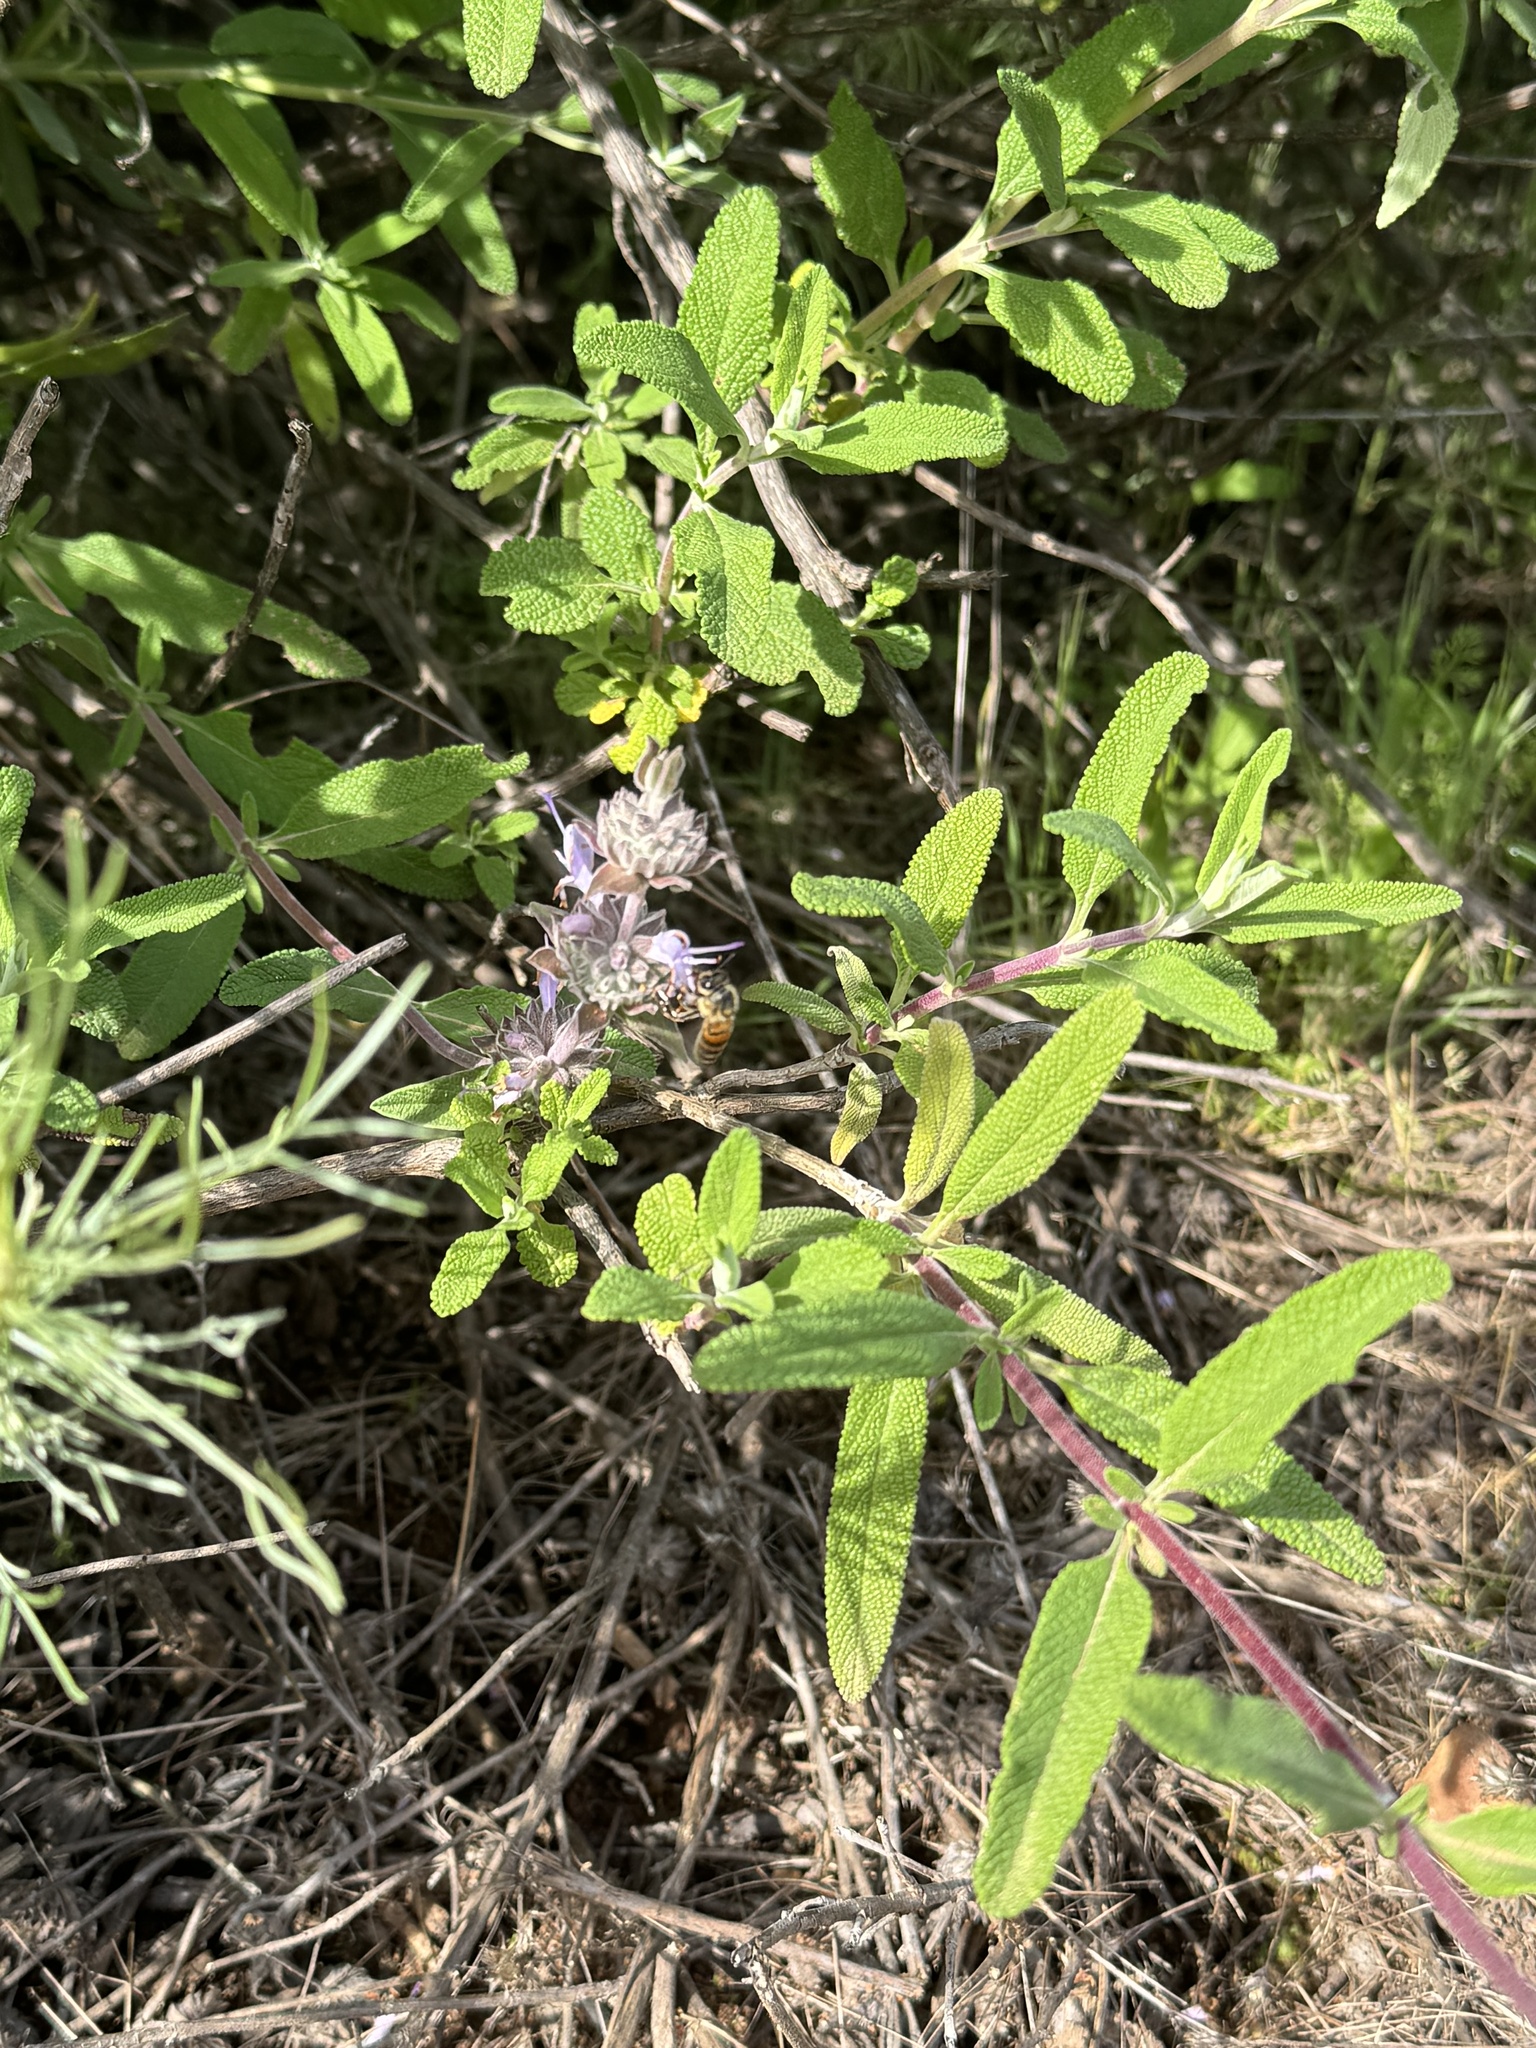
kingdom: Animalia
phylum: Arthropoda
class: Insecta
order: Hymenoptera
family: Apidae
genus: Apis
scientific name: Apis mellifera
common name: Honey bee
